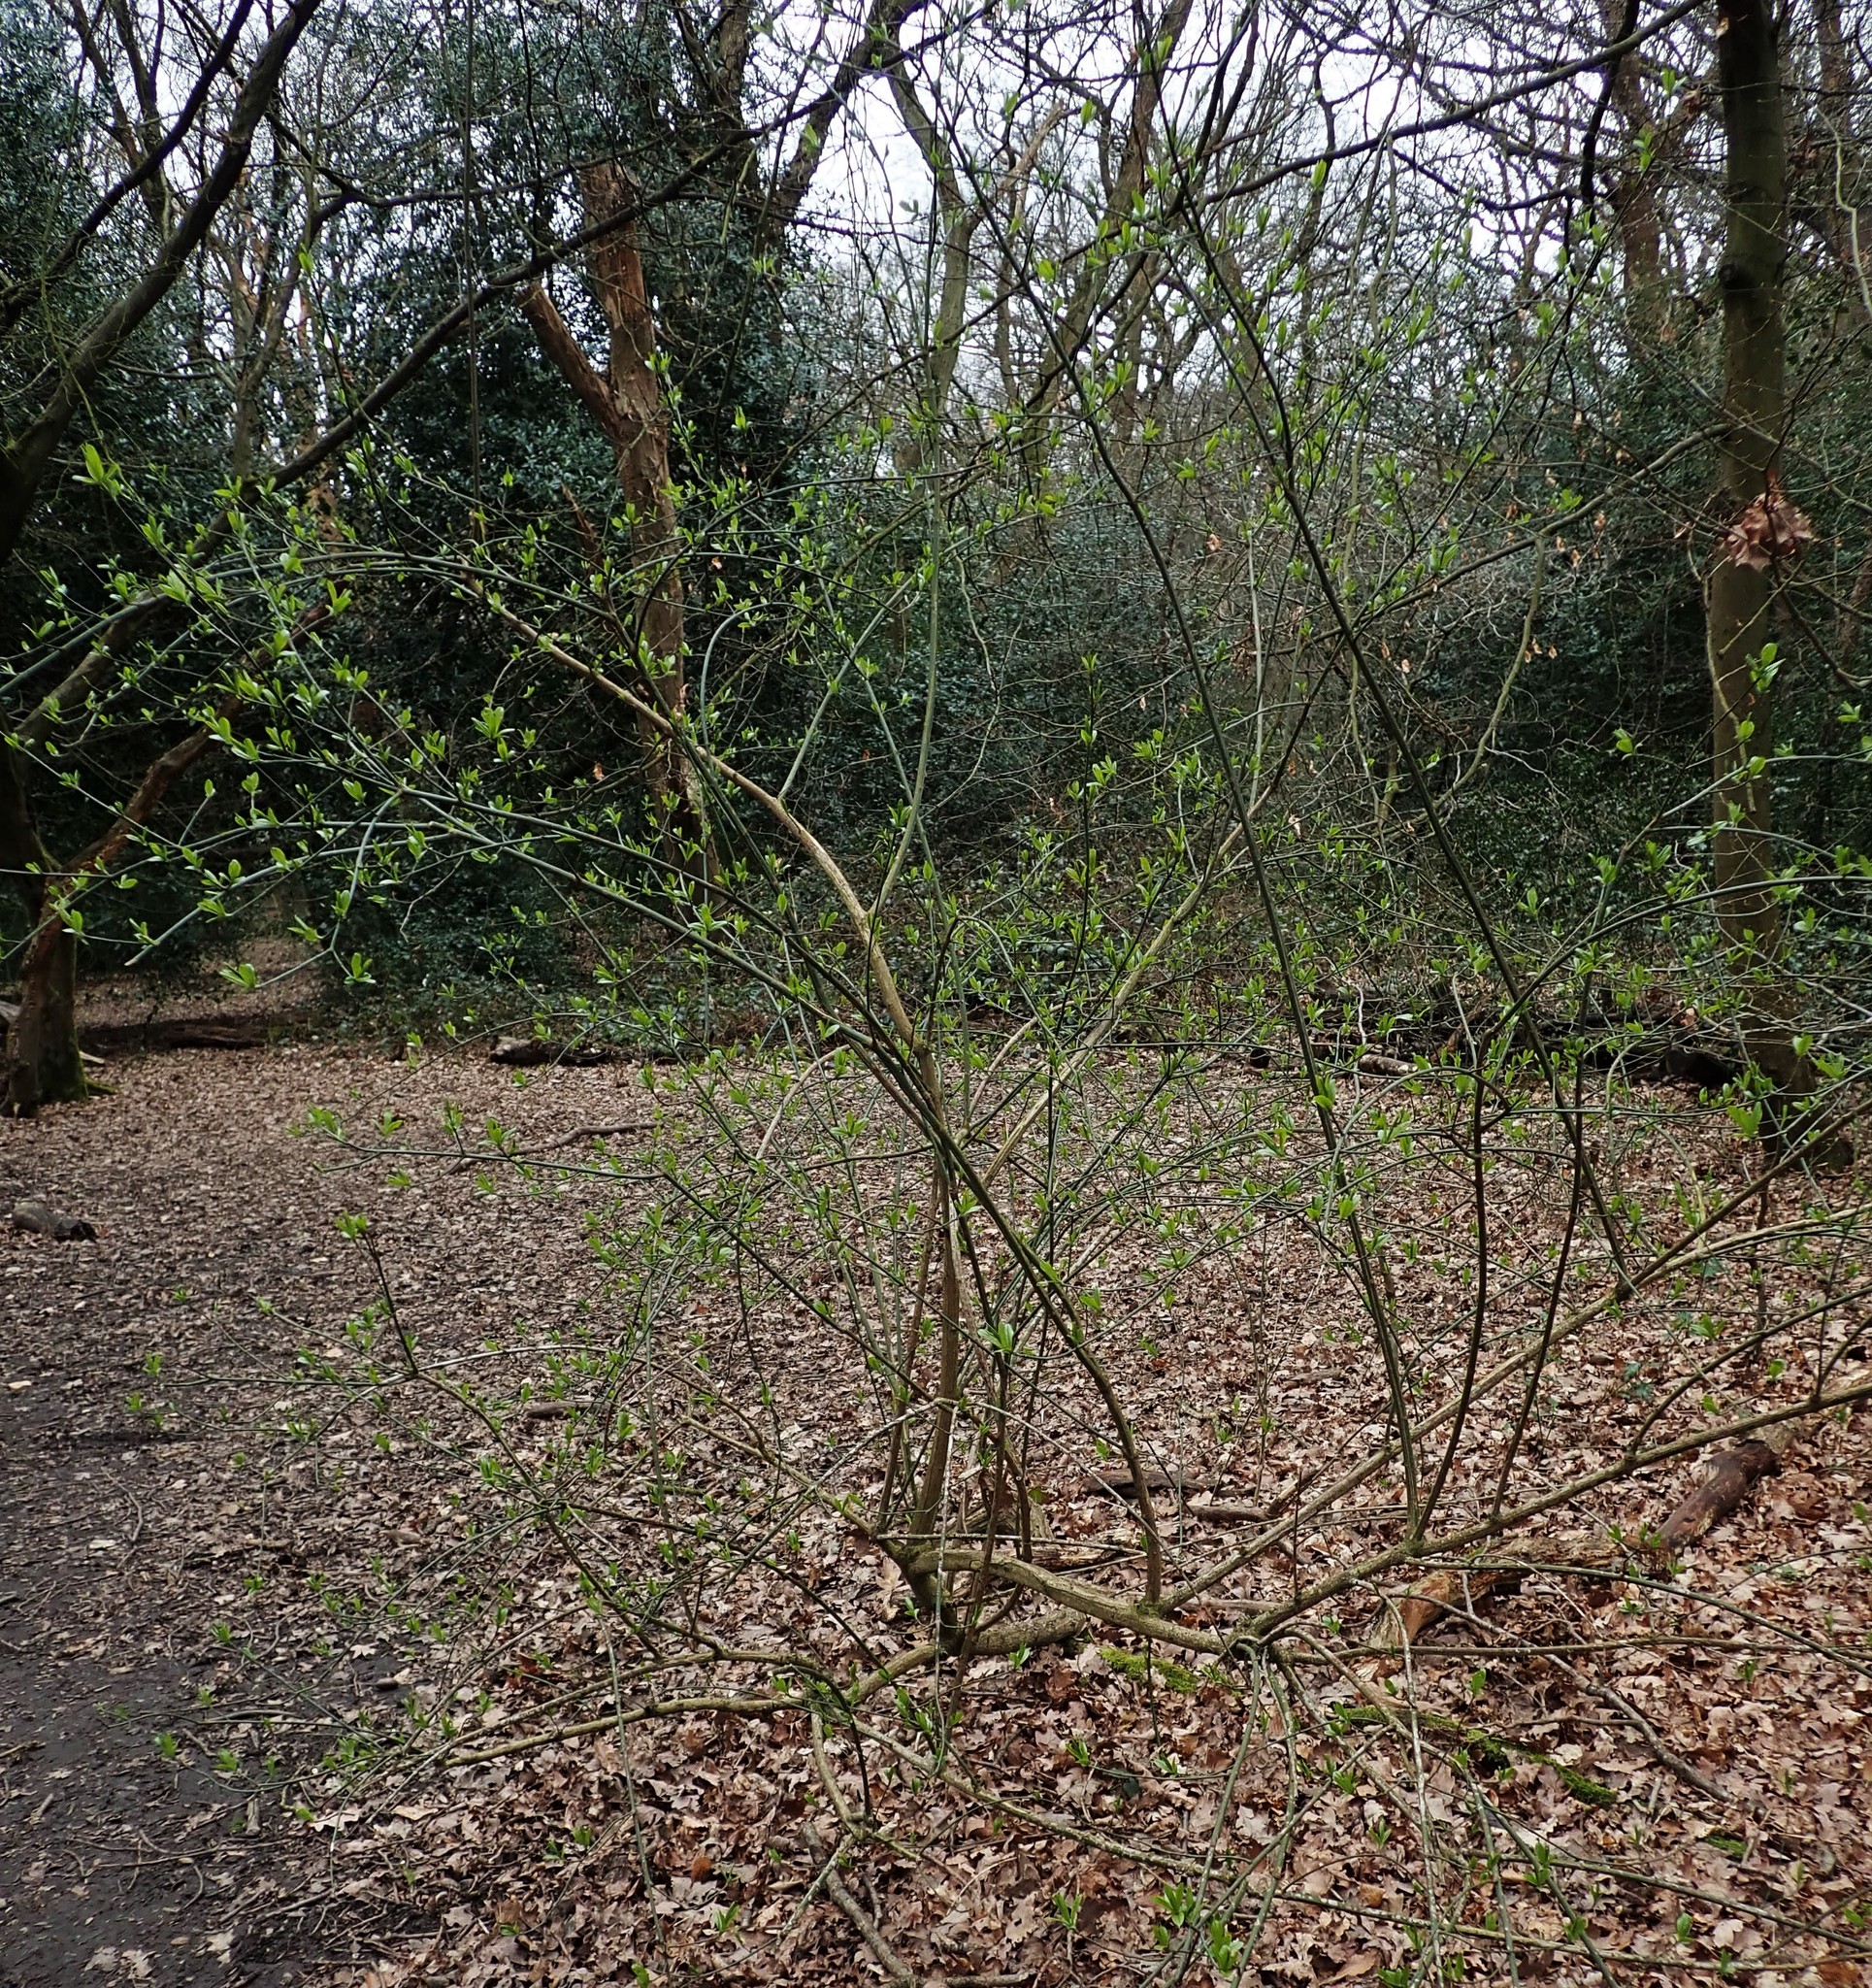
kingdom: Plantae
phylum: Tracheophyta
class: Magnoliopsida
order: Celastrales
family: Celastraceae
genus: Euonymus
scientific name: Euonymus europaeus
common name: Spindle
